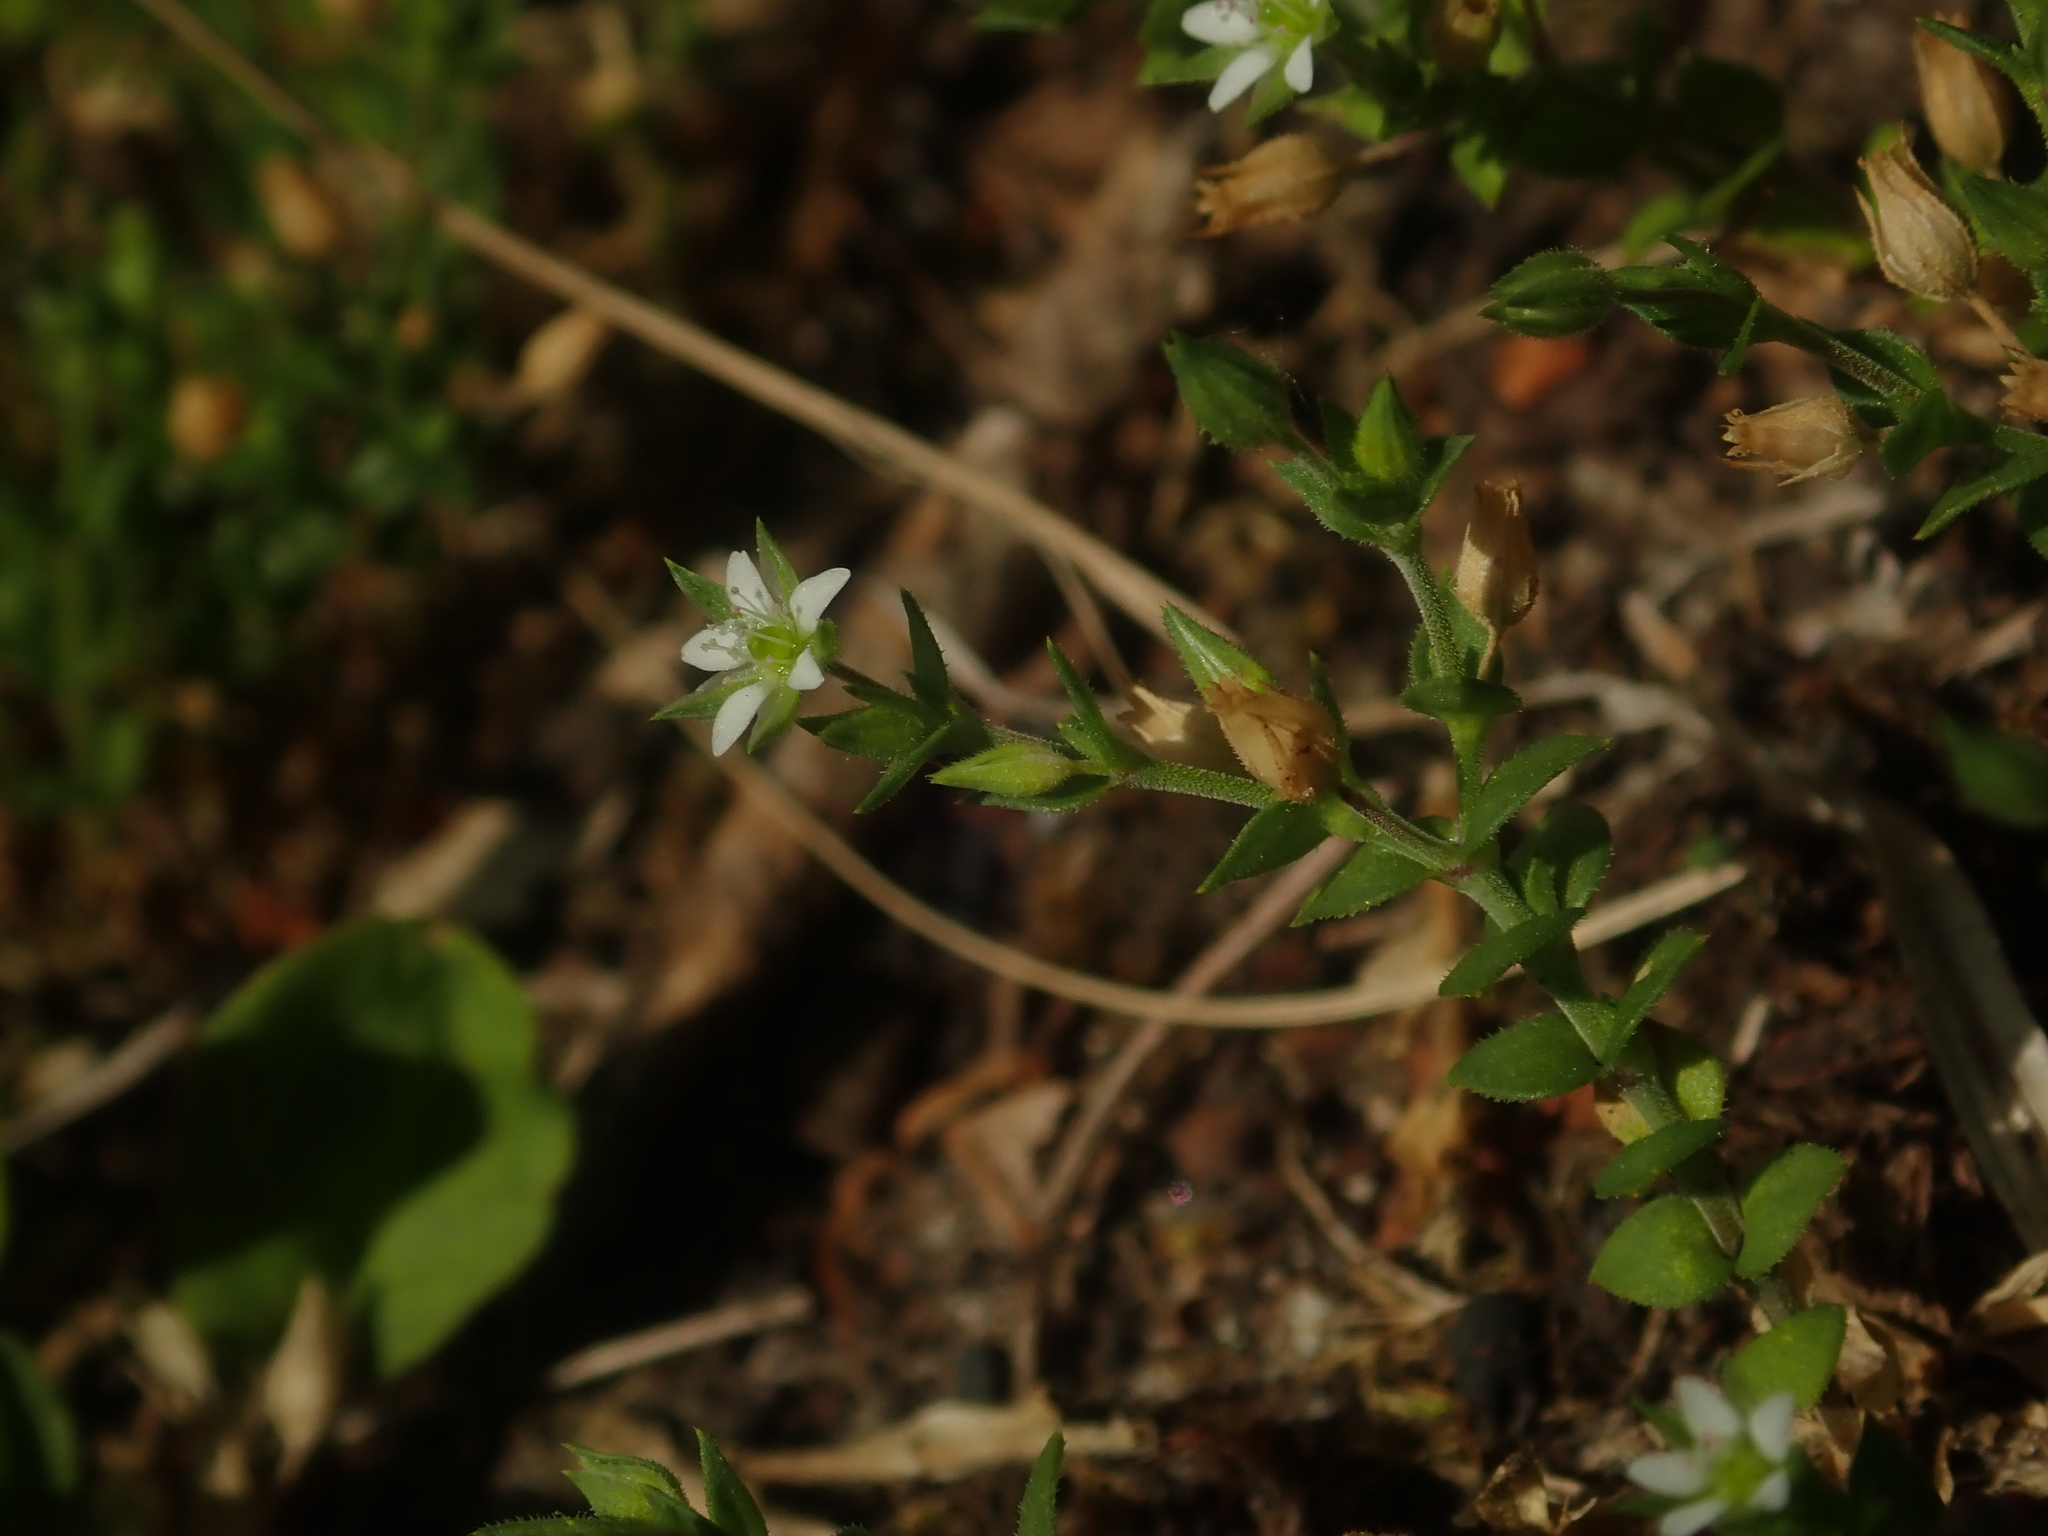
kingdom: Plantae
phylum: Tracheophyta
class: Magnoliopsida
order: Caryophyllales
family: Caryophyllaceae
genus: Arenaria
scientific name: Arenaria serpyllifolia
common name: Thyme-leaved sandwort
